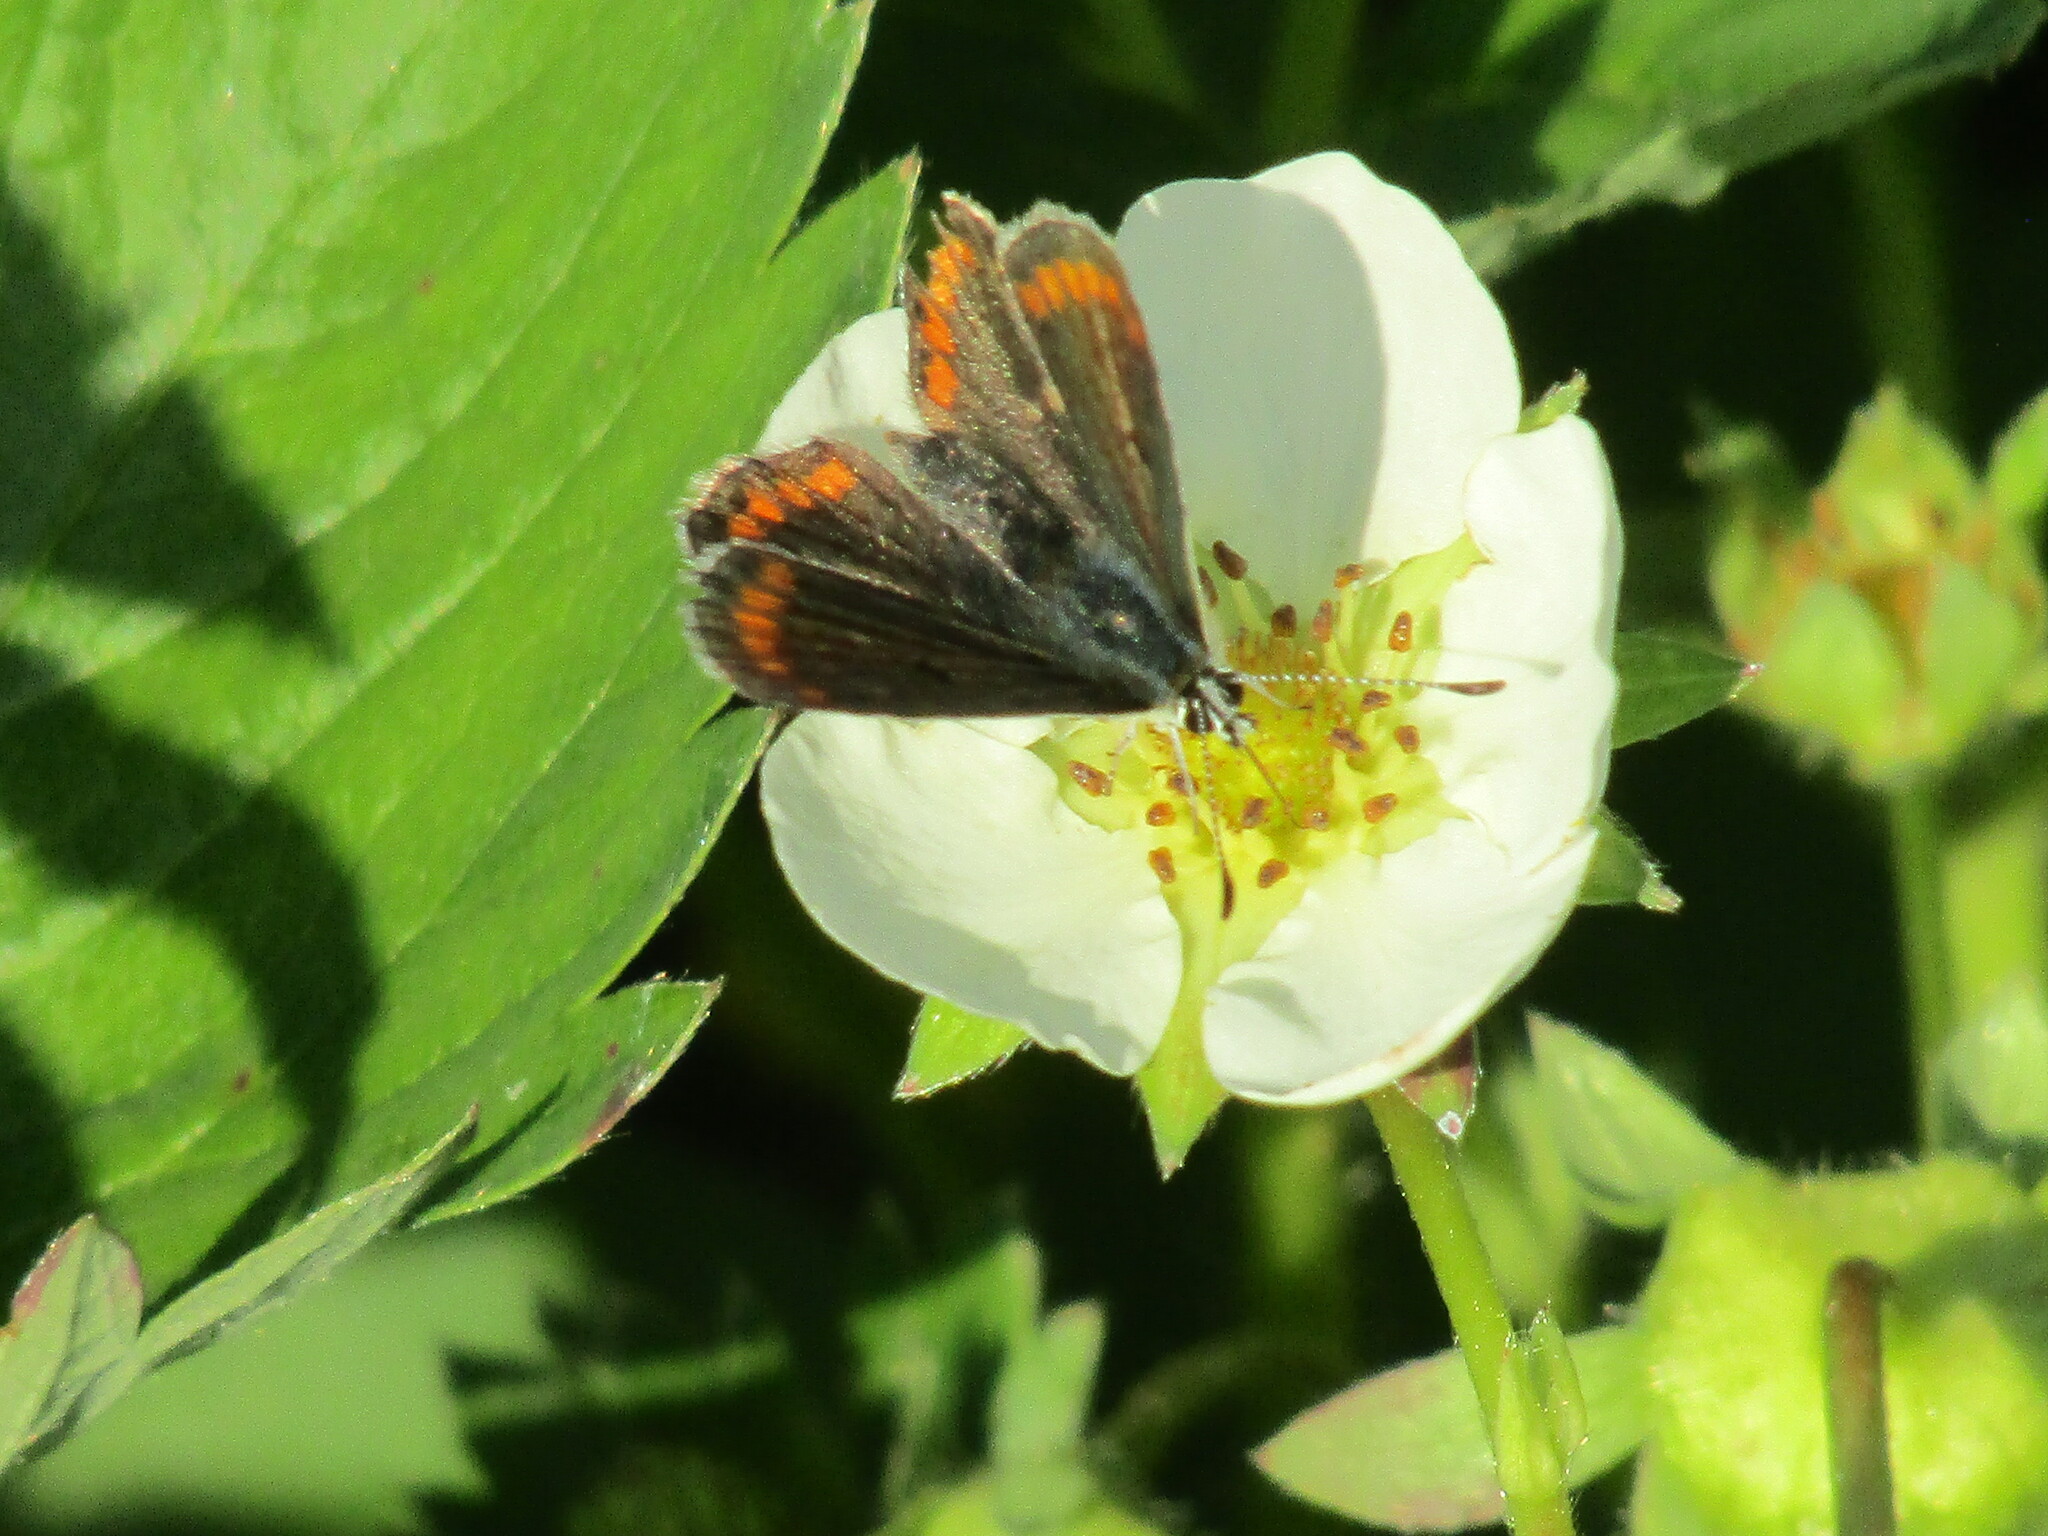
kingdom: Animalia
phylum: Arthropoda
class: Insecta
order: Lepidoptera
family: Lycaenidae
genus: Aricia
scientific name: Aricia agestis
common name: Brown argus
